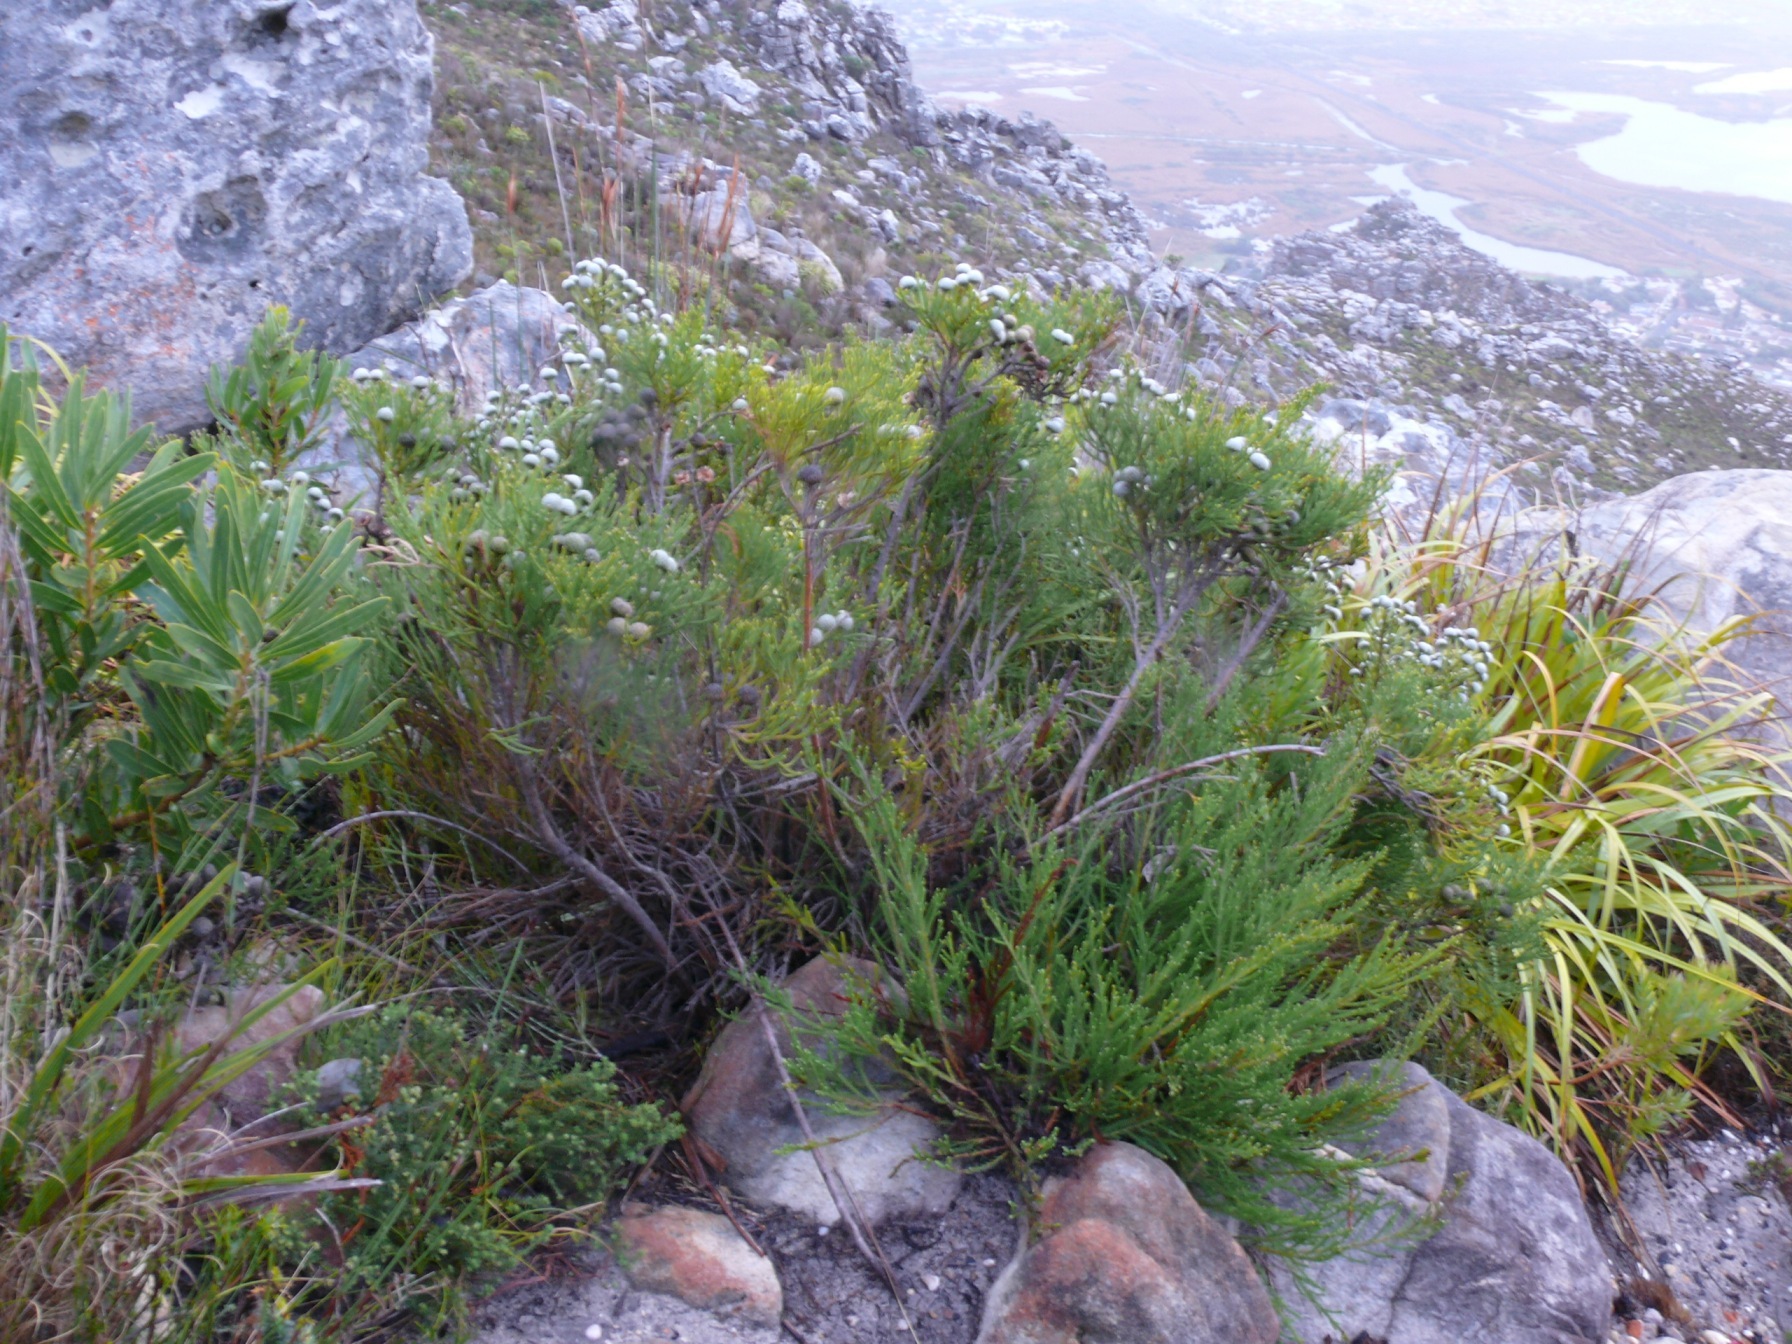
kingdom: Plantae
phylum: Tracheophyta
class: Magnoliopsida
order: Bruniales
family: Bruniaceae
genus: Brunia
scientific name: Brunia noduliflora
